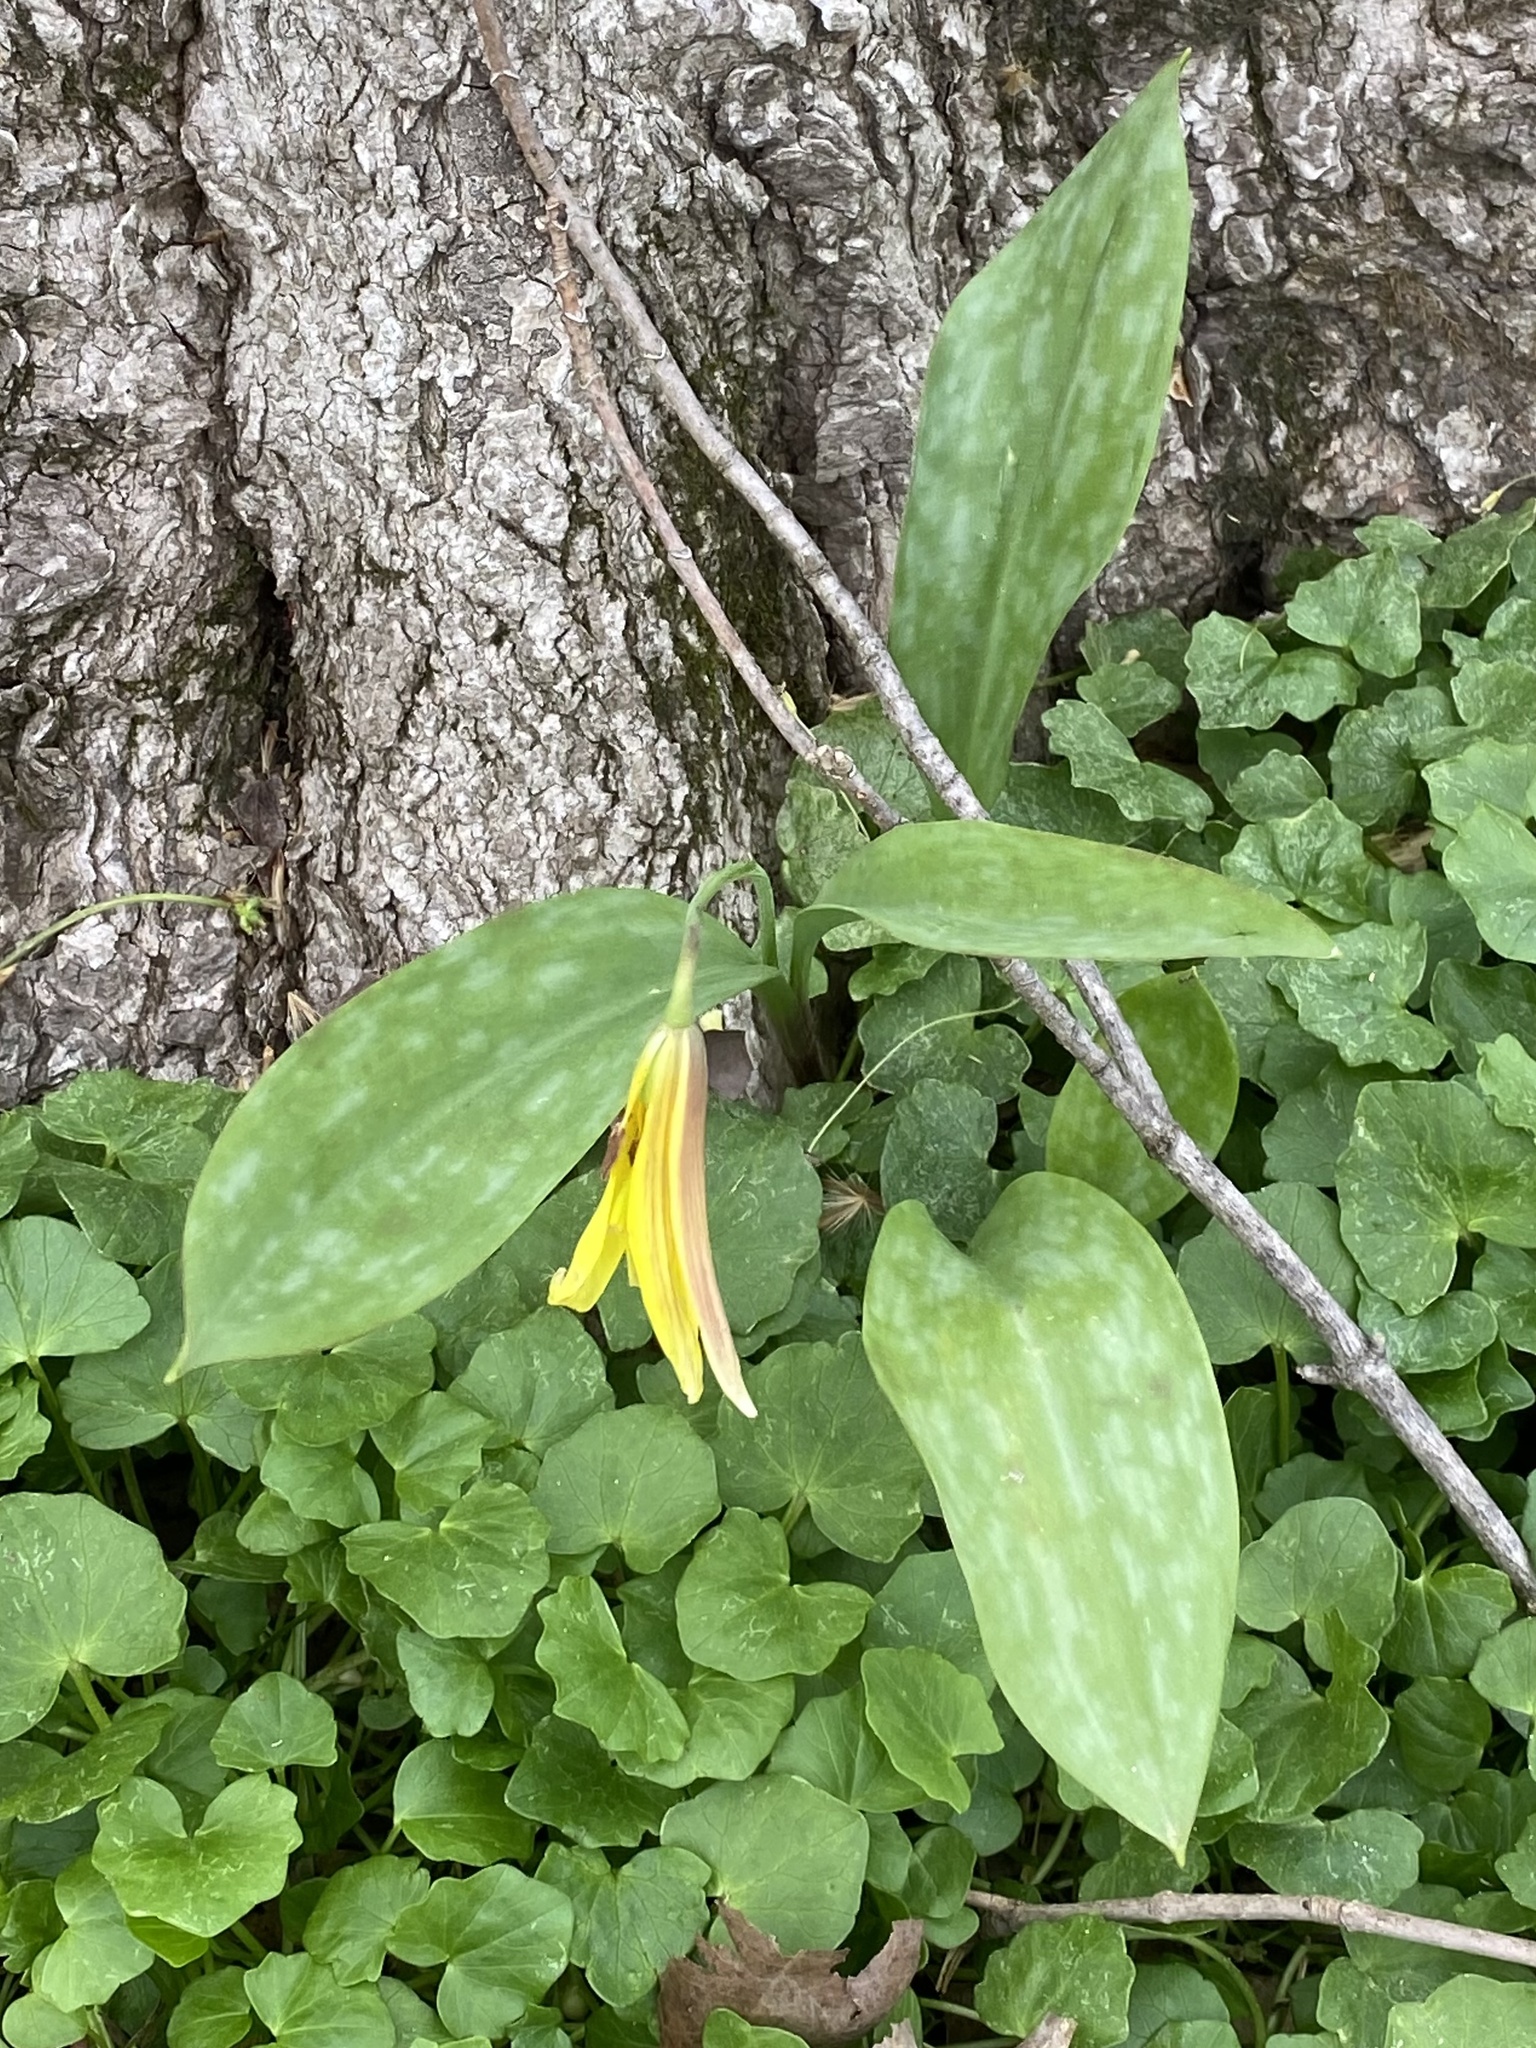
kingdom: Plantae
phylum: Tracheophyta
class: Liliopsida
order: Liliales
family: Liliaceae
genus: Erythronium
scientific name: Erythronium americanum
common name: Yellow adder's-tongue
